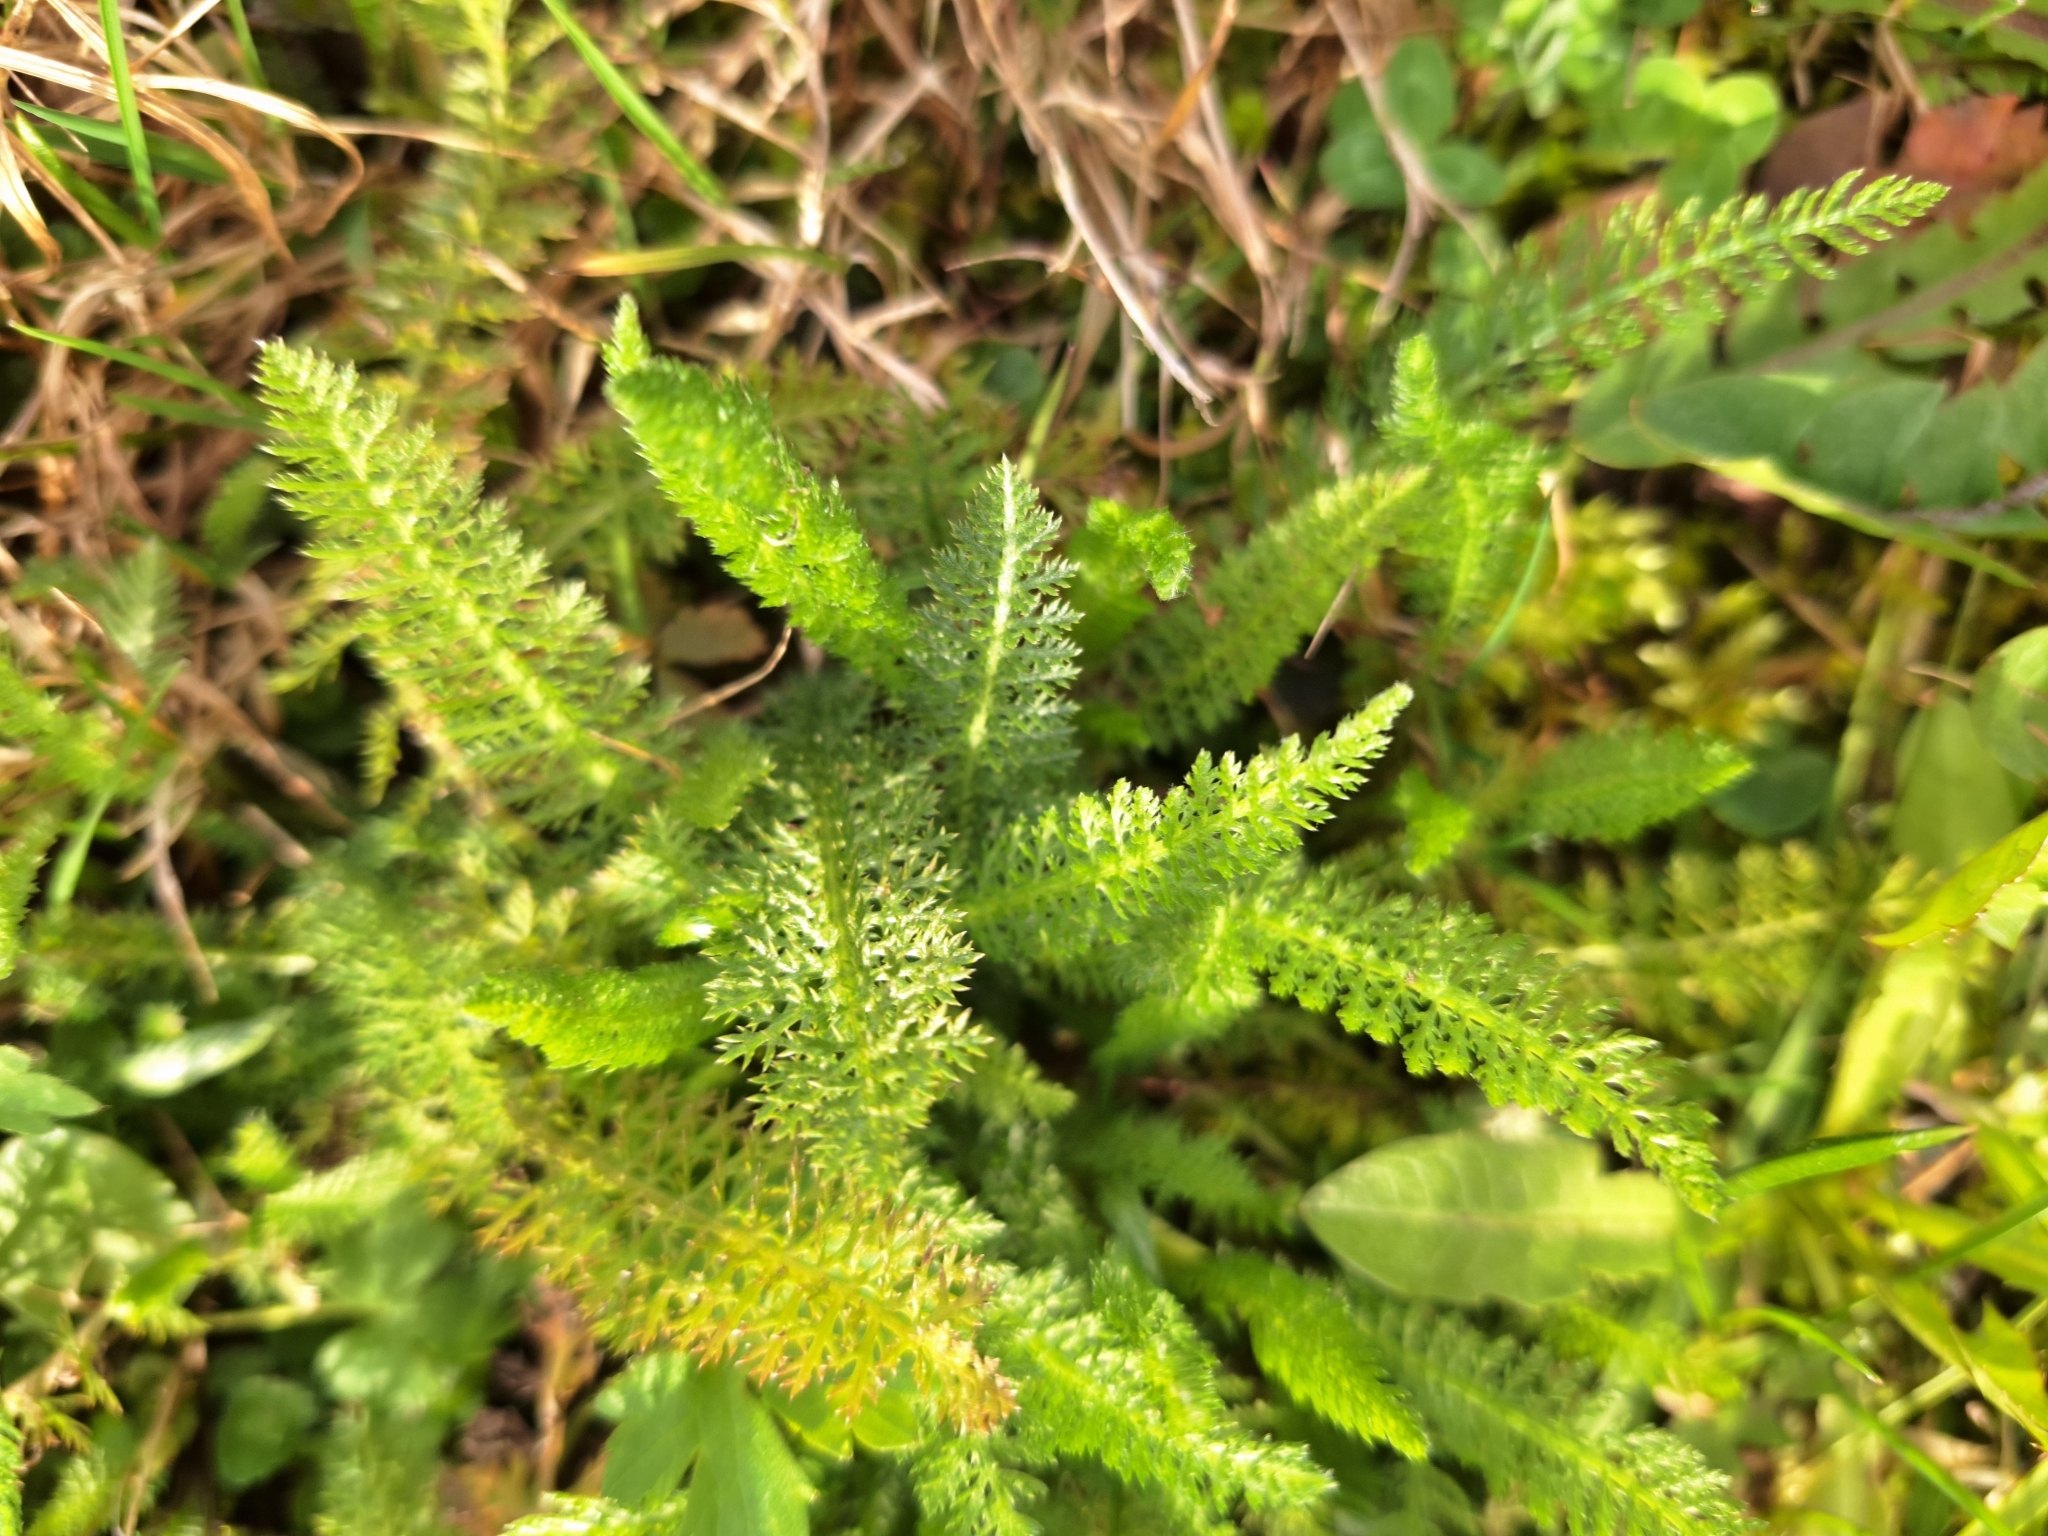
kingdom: Plantae
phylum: Tracheophyta
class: Magnoliopsida
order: Asterales
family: Asteraceae
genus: Achillea
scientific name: Achillea millefolium
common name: Yarrow
